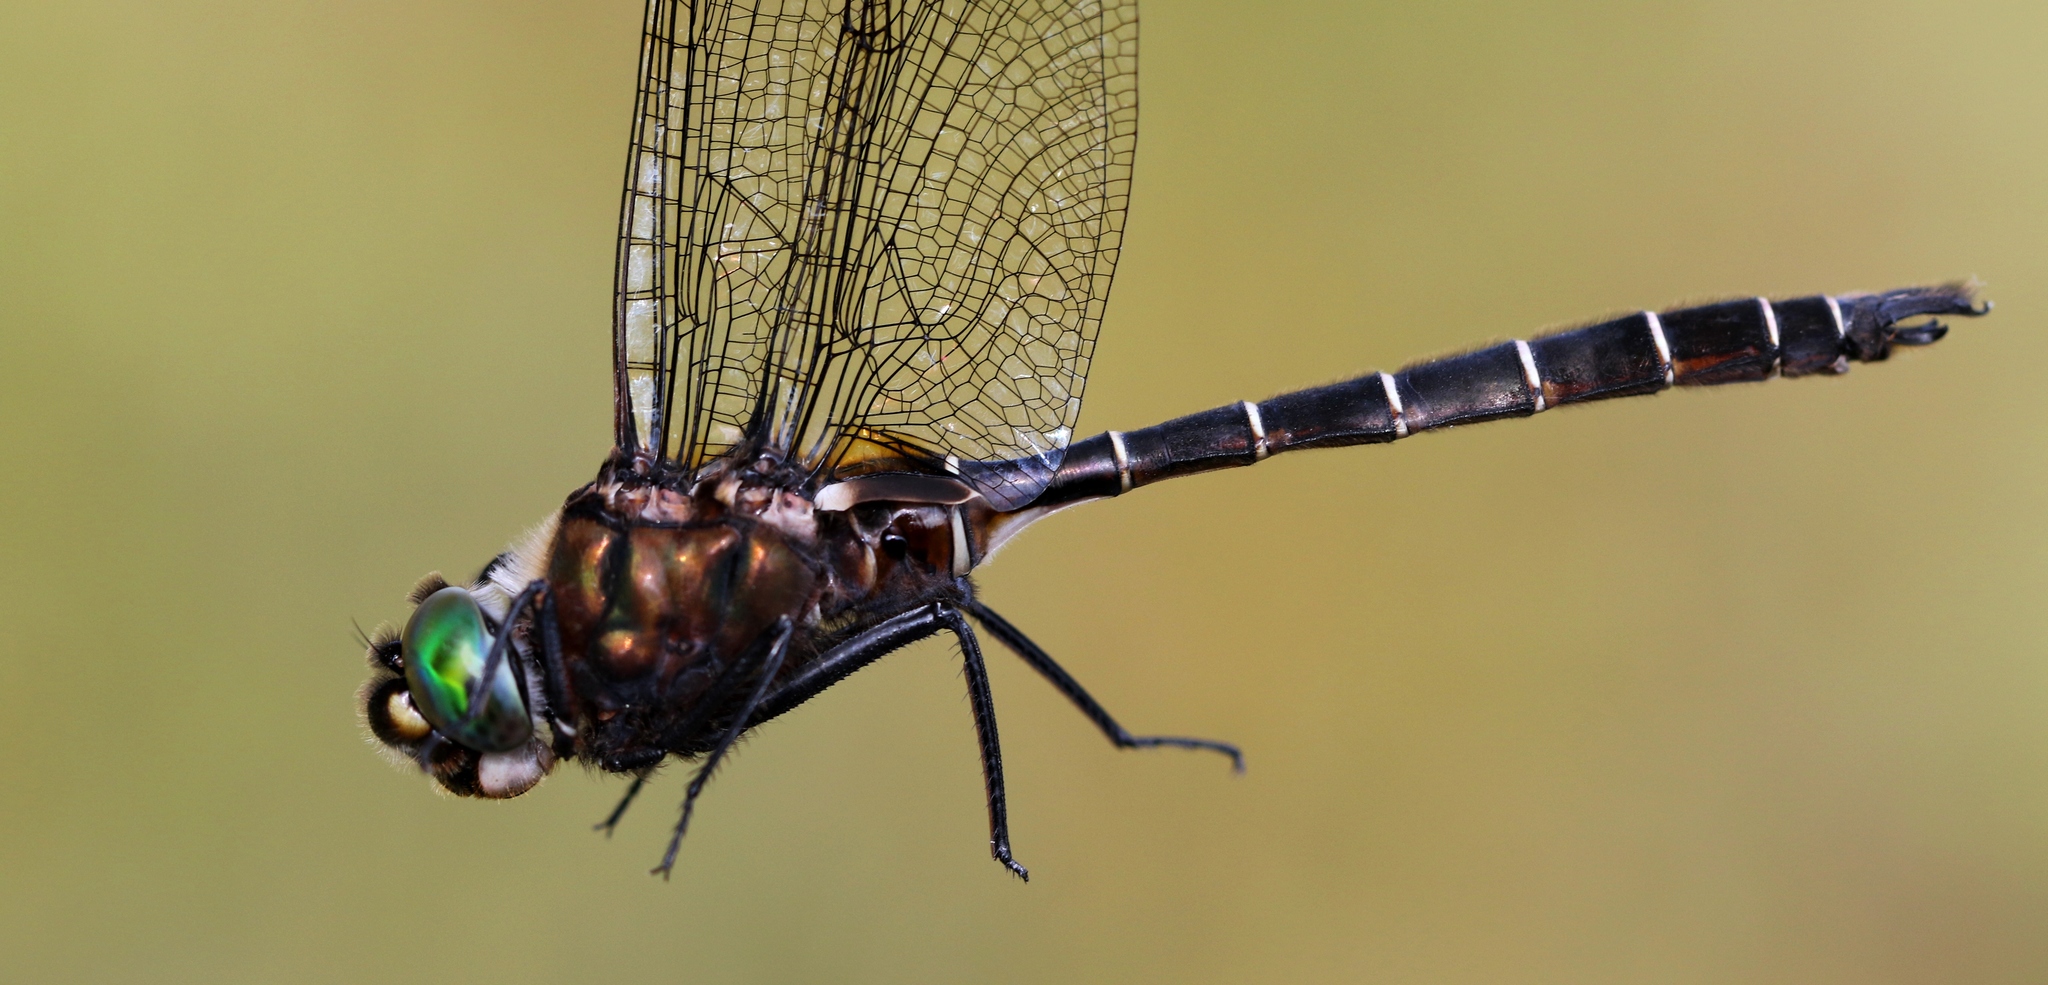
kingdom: Animalia
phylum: Arthropoda
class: Insecta
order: Odonata
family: Corduliidae
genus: Somatochlora
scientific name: Somatochlora cingulata
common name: Lake emerald
